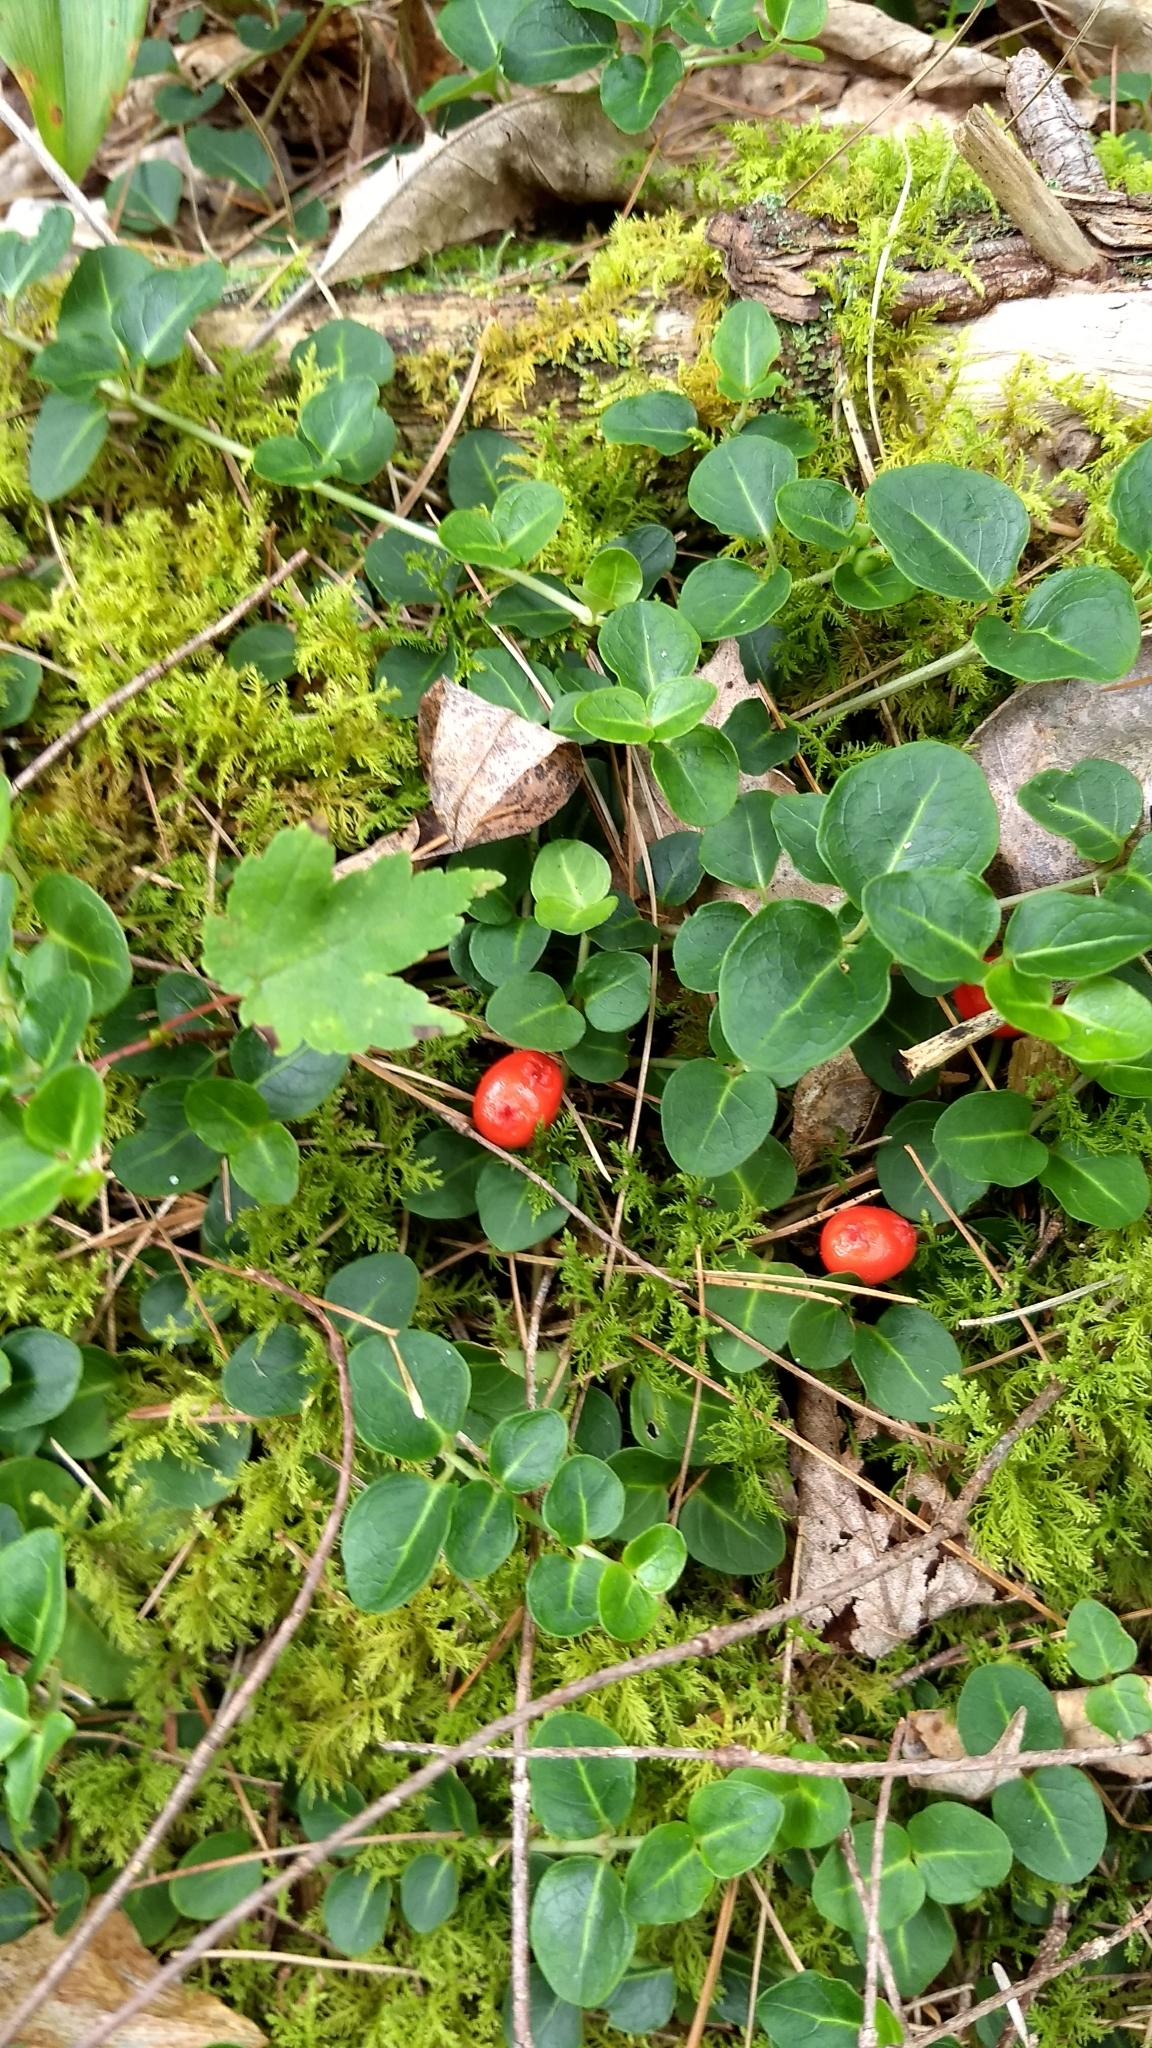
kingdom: Plantae
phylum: Tracheophyta
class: Magnoliopsida
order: Gentianales
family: Rubiaceae
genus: Mitchella
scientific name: Mitchella repens
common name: Partridge-berry
